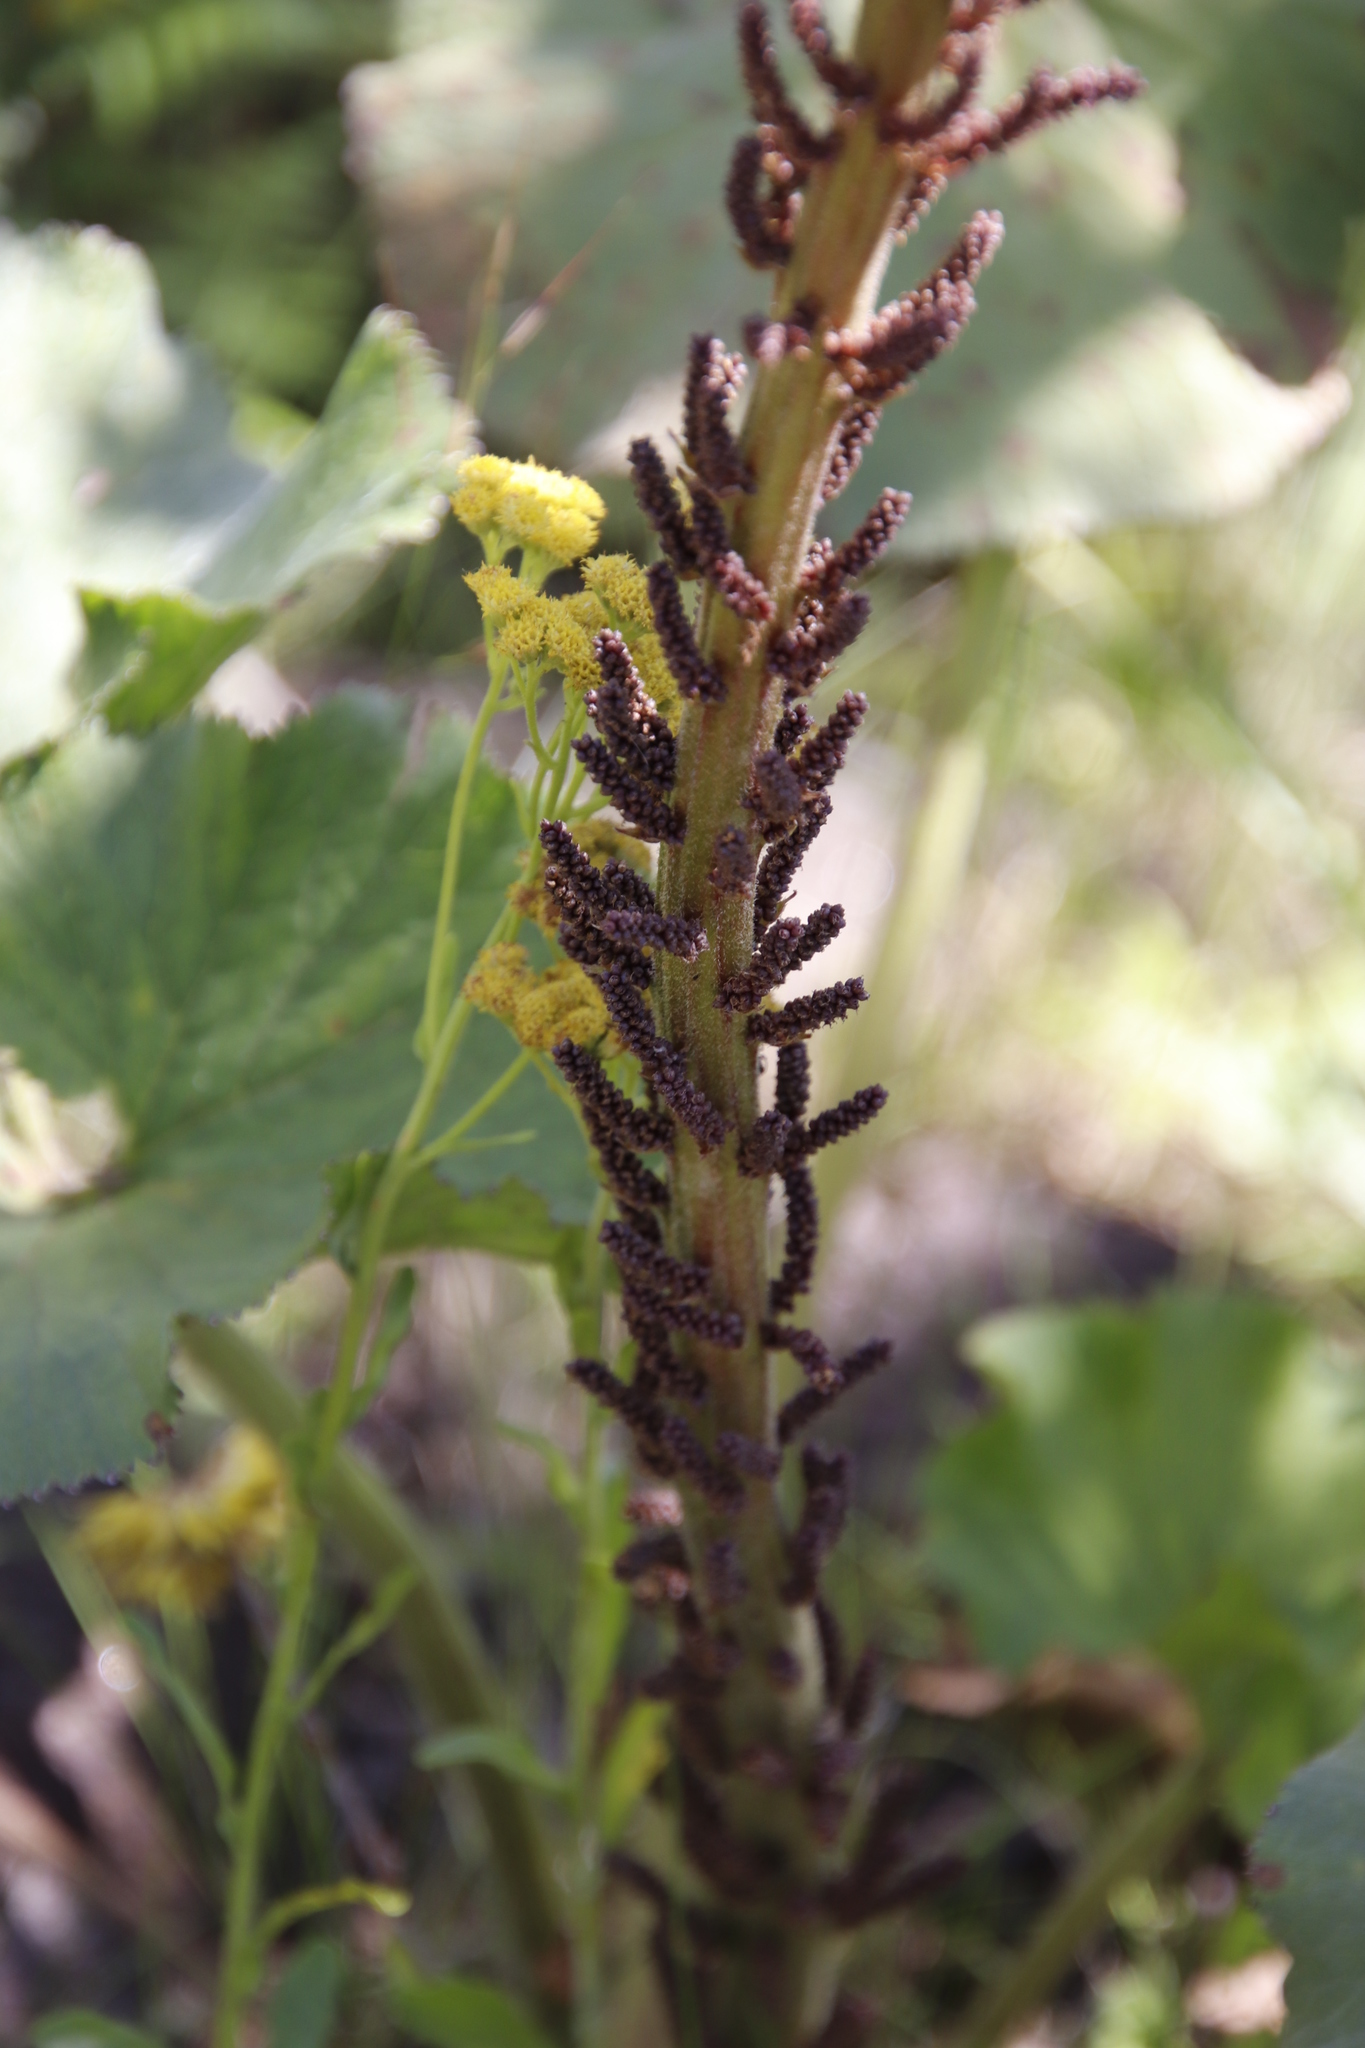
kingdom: Plantae
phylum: Tracheophyta
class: Magnoliopsida
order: Gunnerales
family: Gunneraceae
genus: Gunnera
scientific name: Gunnera perpensa
